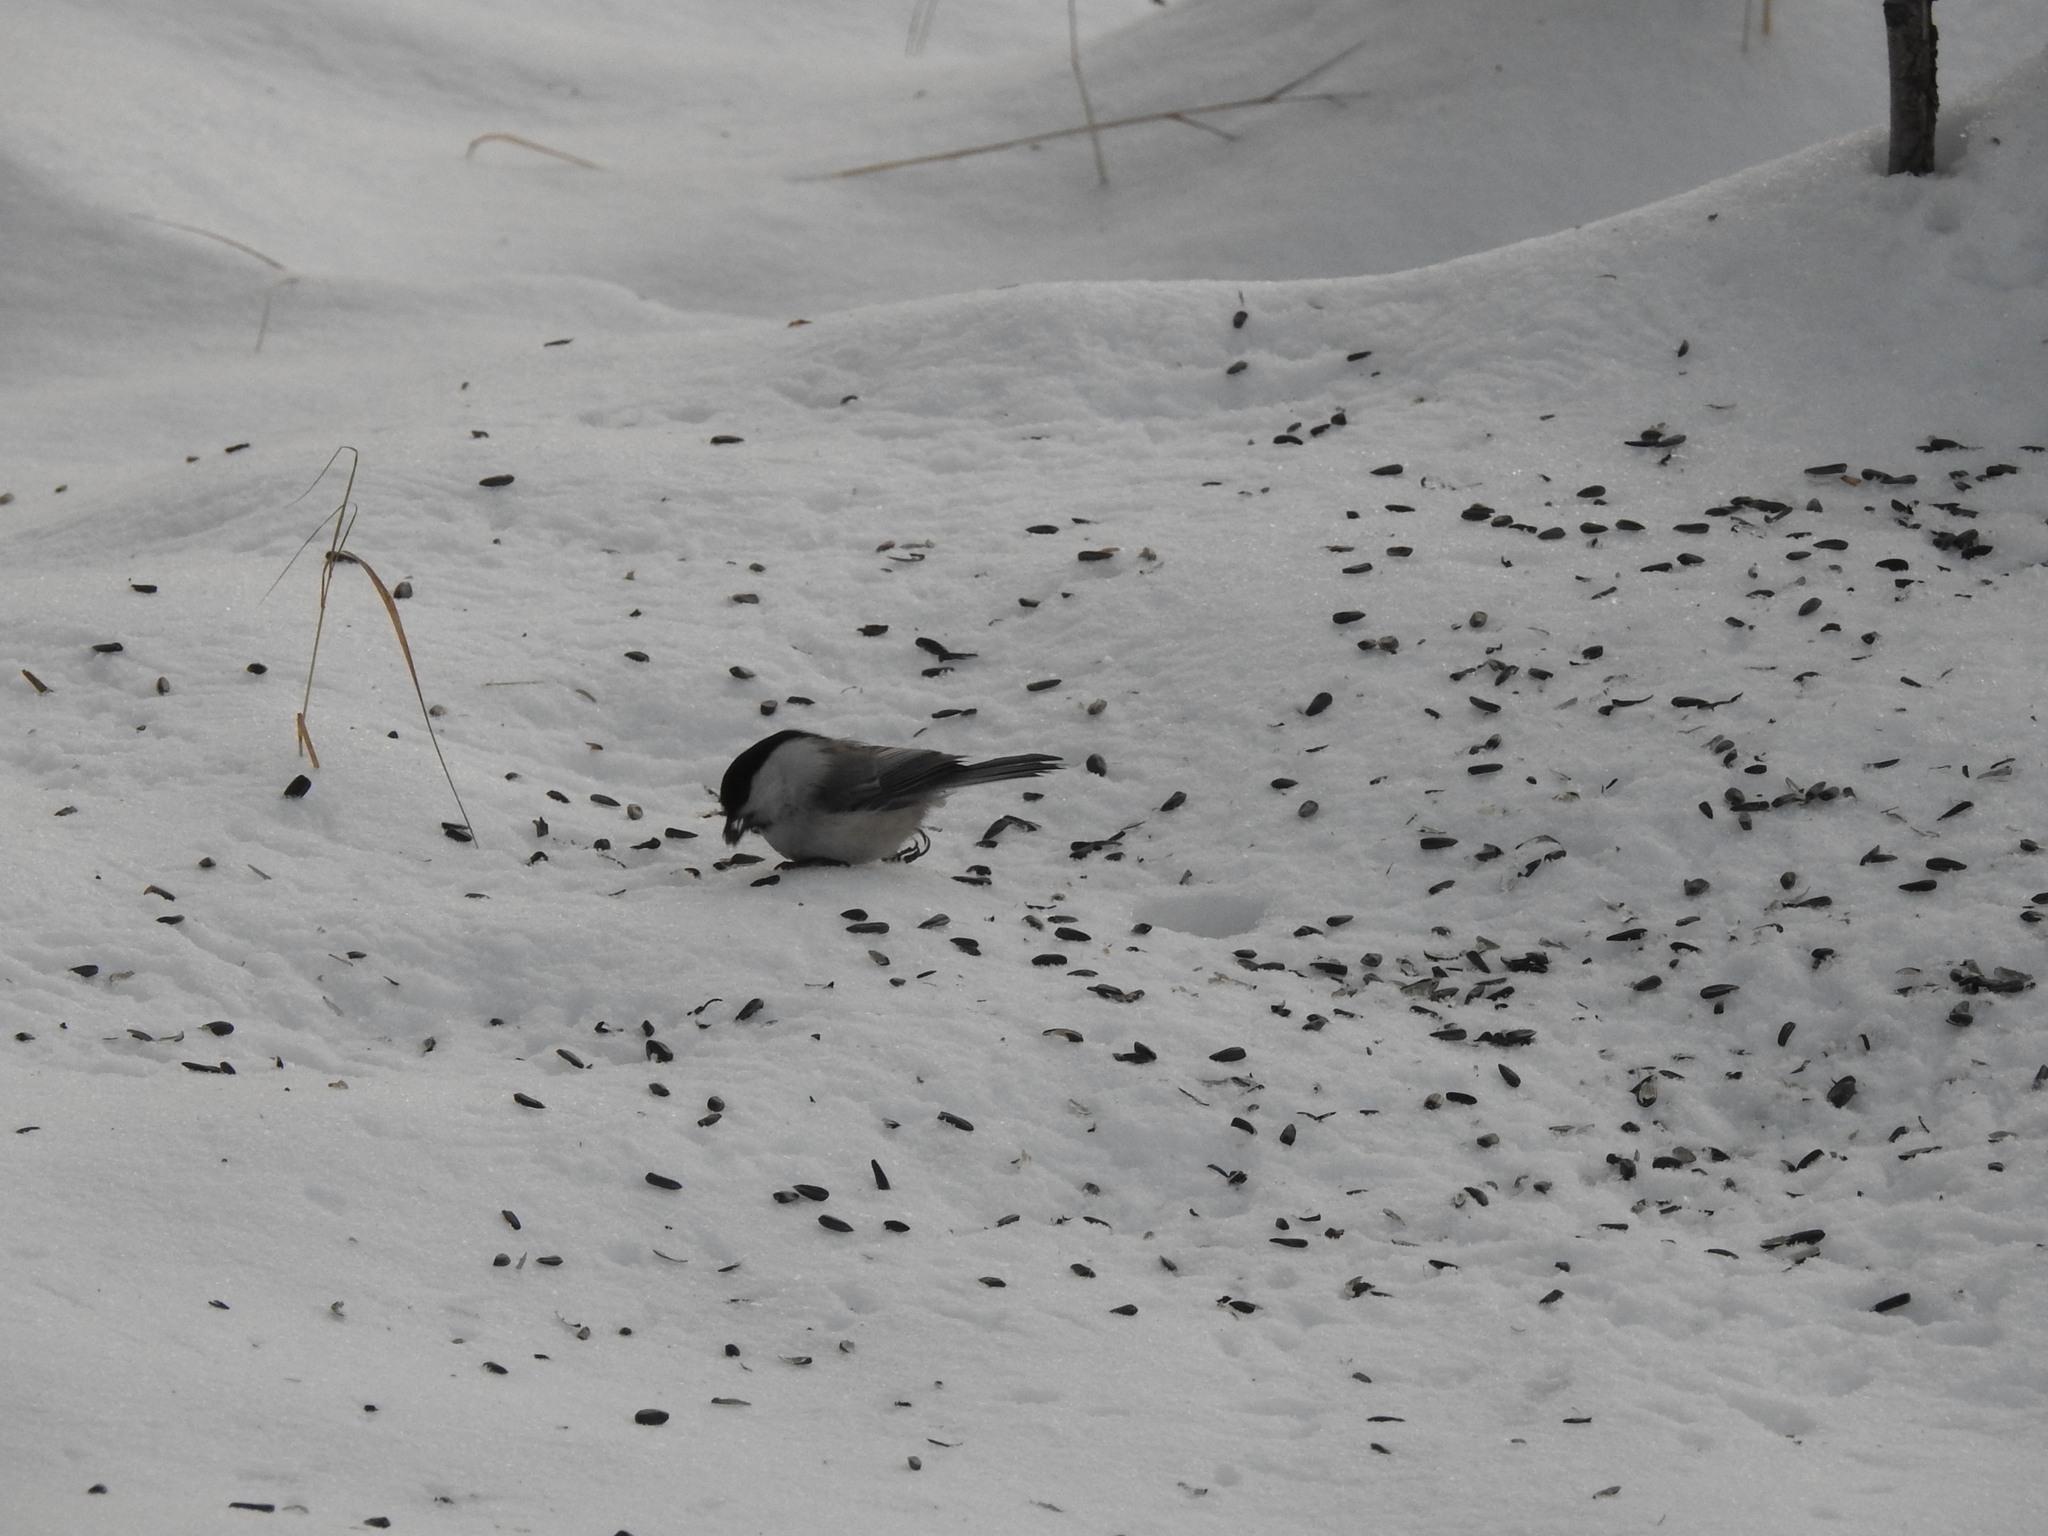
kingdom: Animalia
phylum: Chordata
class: Aves
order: Passeriformes
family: Paridae
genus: Poecile
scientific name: Poecile montanus
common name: Willow tit
